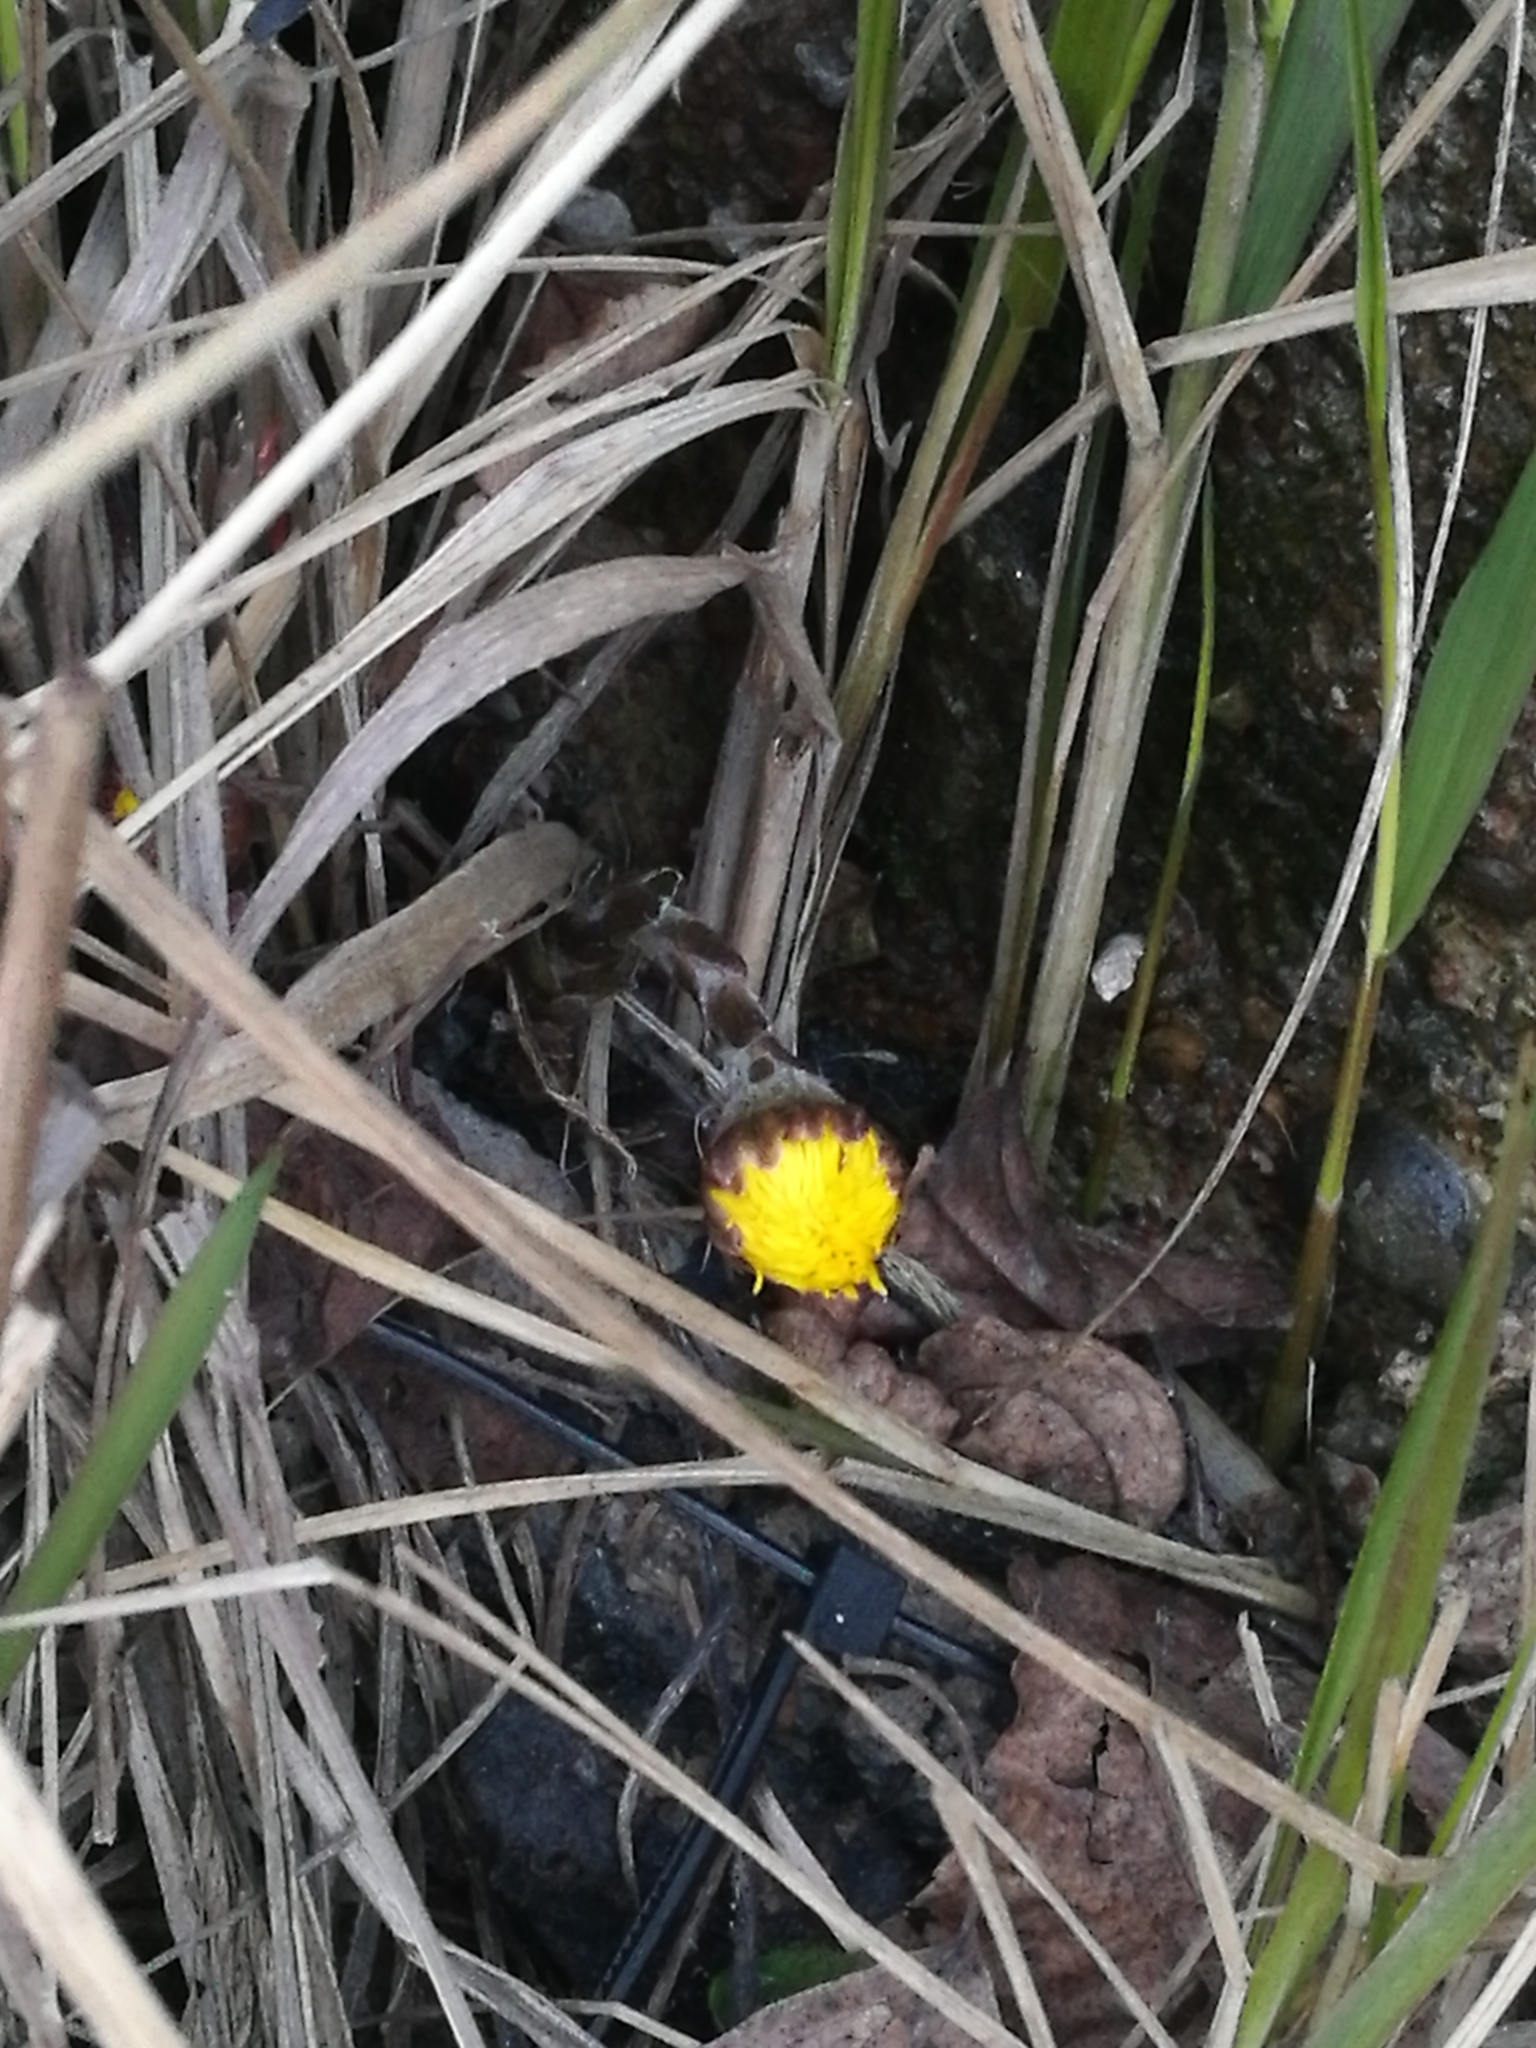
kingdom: Plantae
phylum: Tracheophyta
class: Magnoliopsida
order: Asterales
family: Asteraceae
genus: Tussilago
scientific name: Tussilago farfara
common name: Coltsfoot
